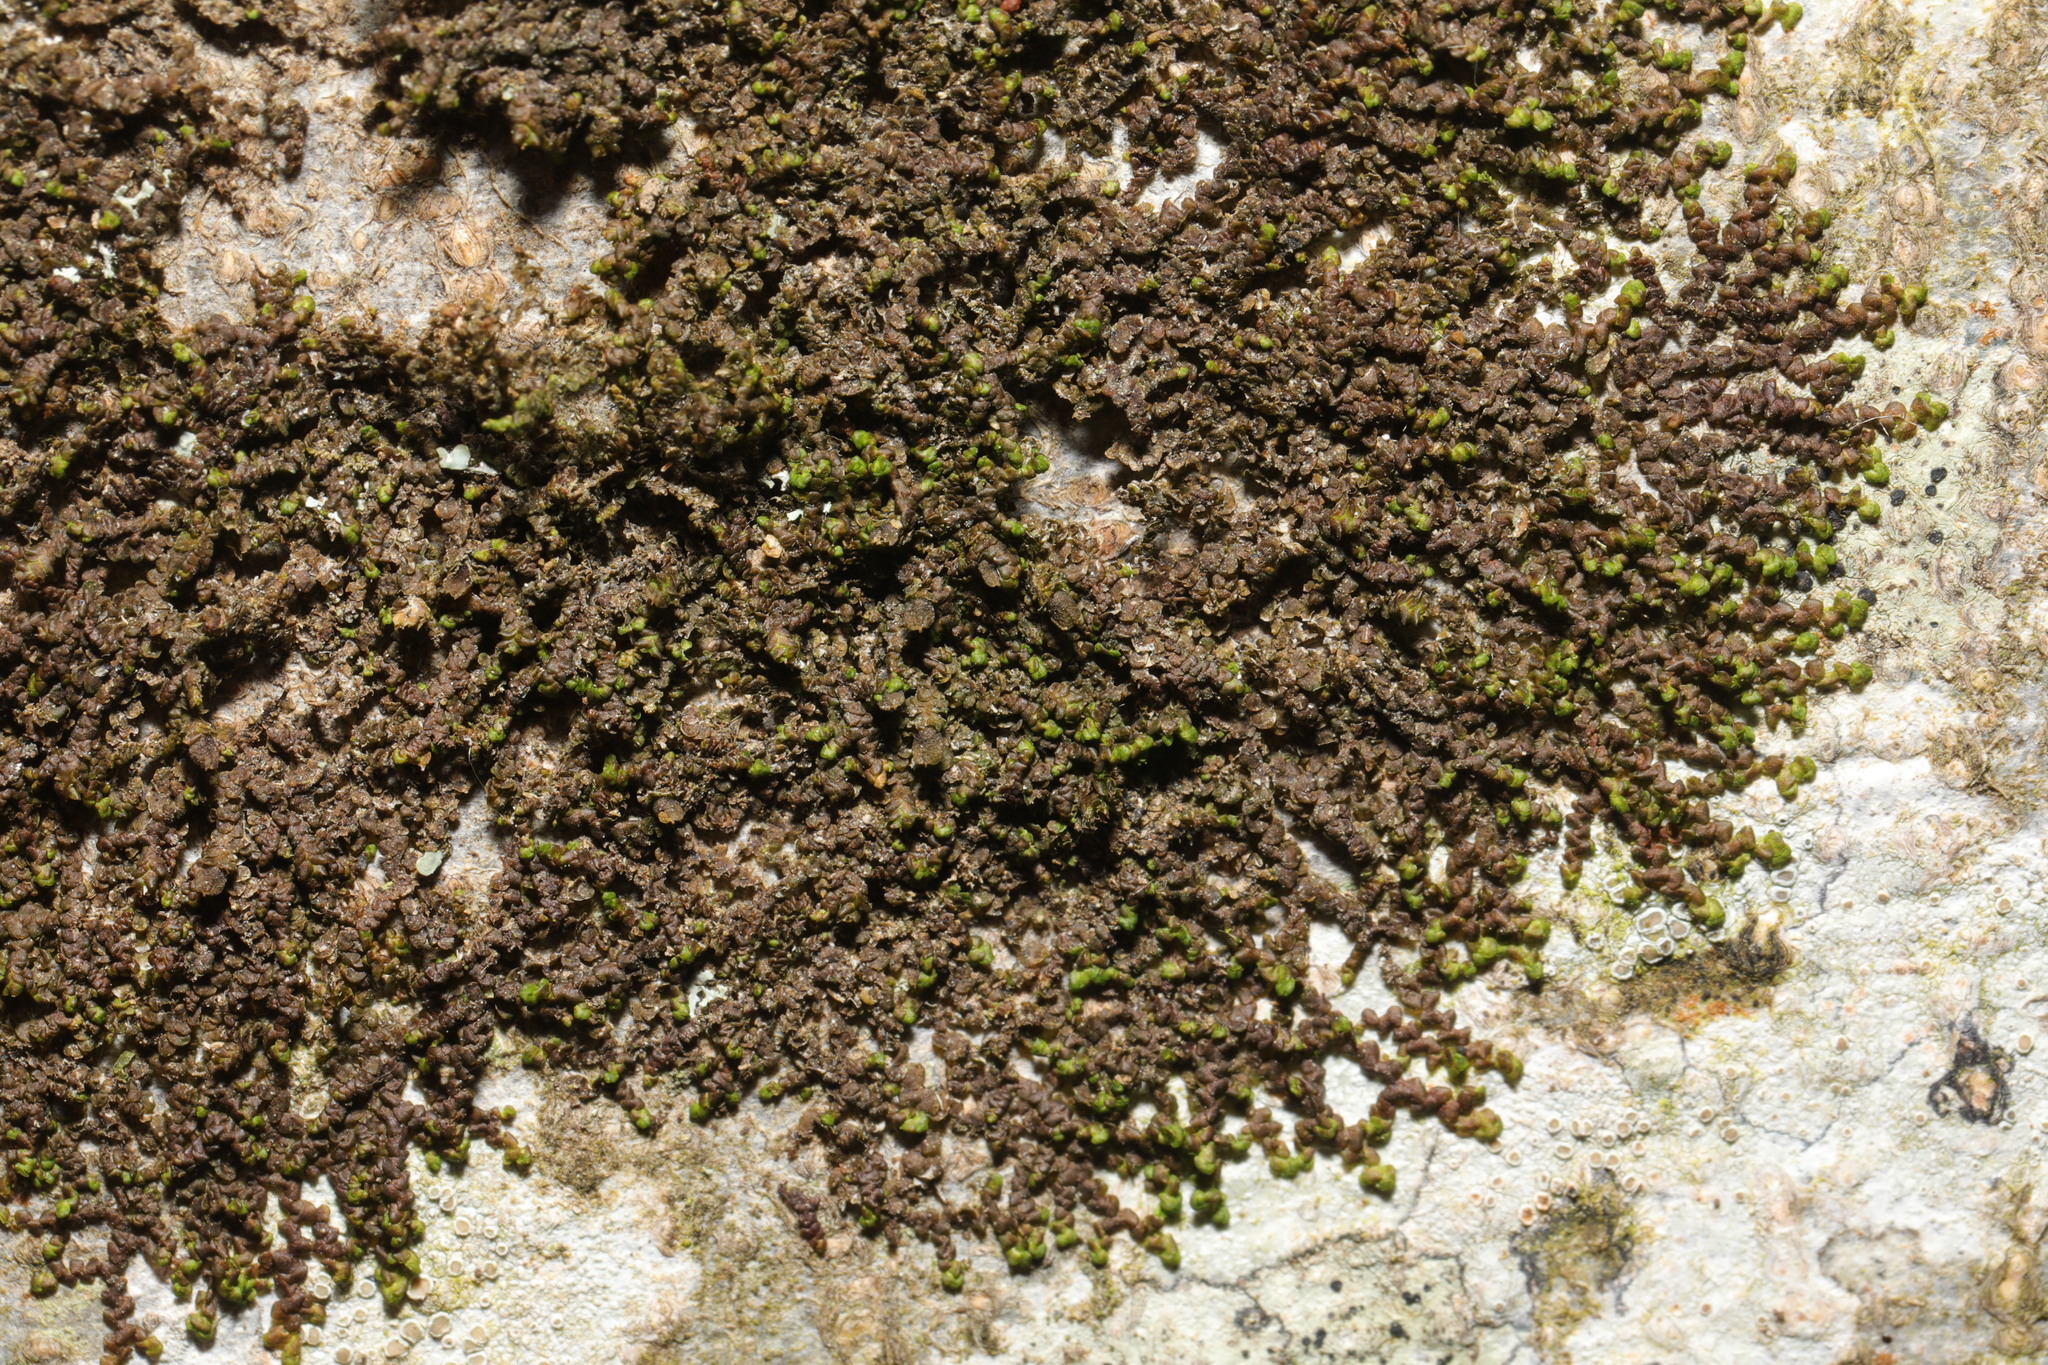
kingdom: Plantae
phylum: Marchantiophyta
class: Jungermanniopsida
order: Porellales
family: Frullaniaceae
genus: Frullania
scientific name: Frullania dilatata
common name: Dilated scalewort
